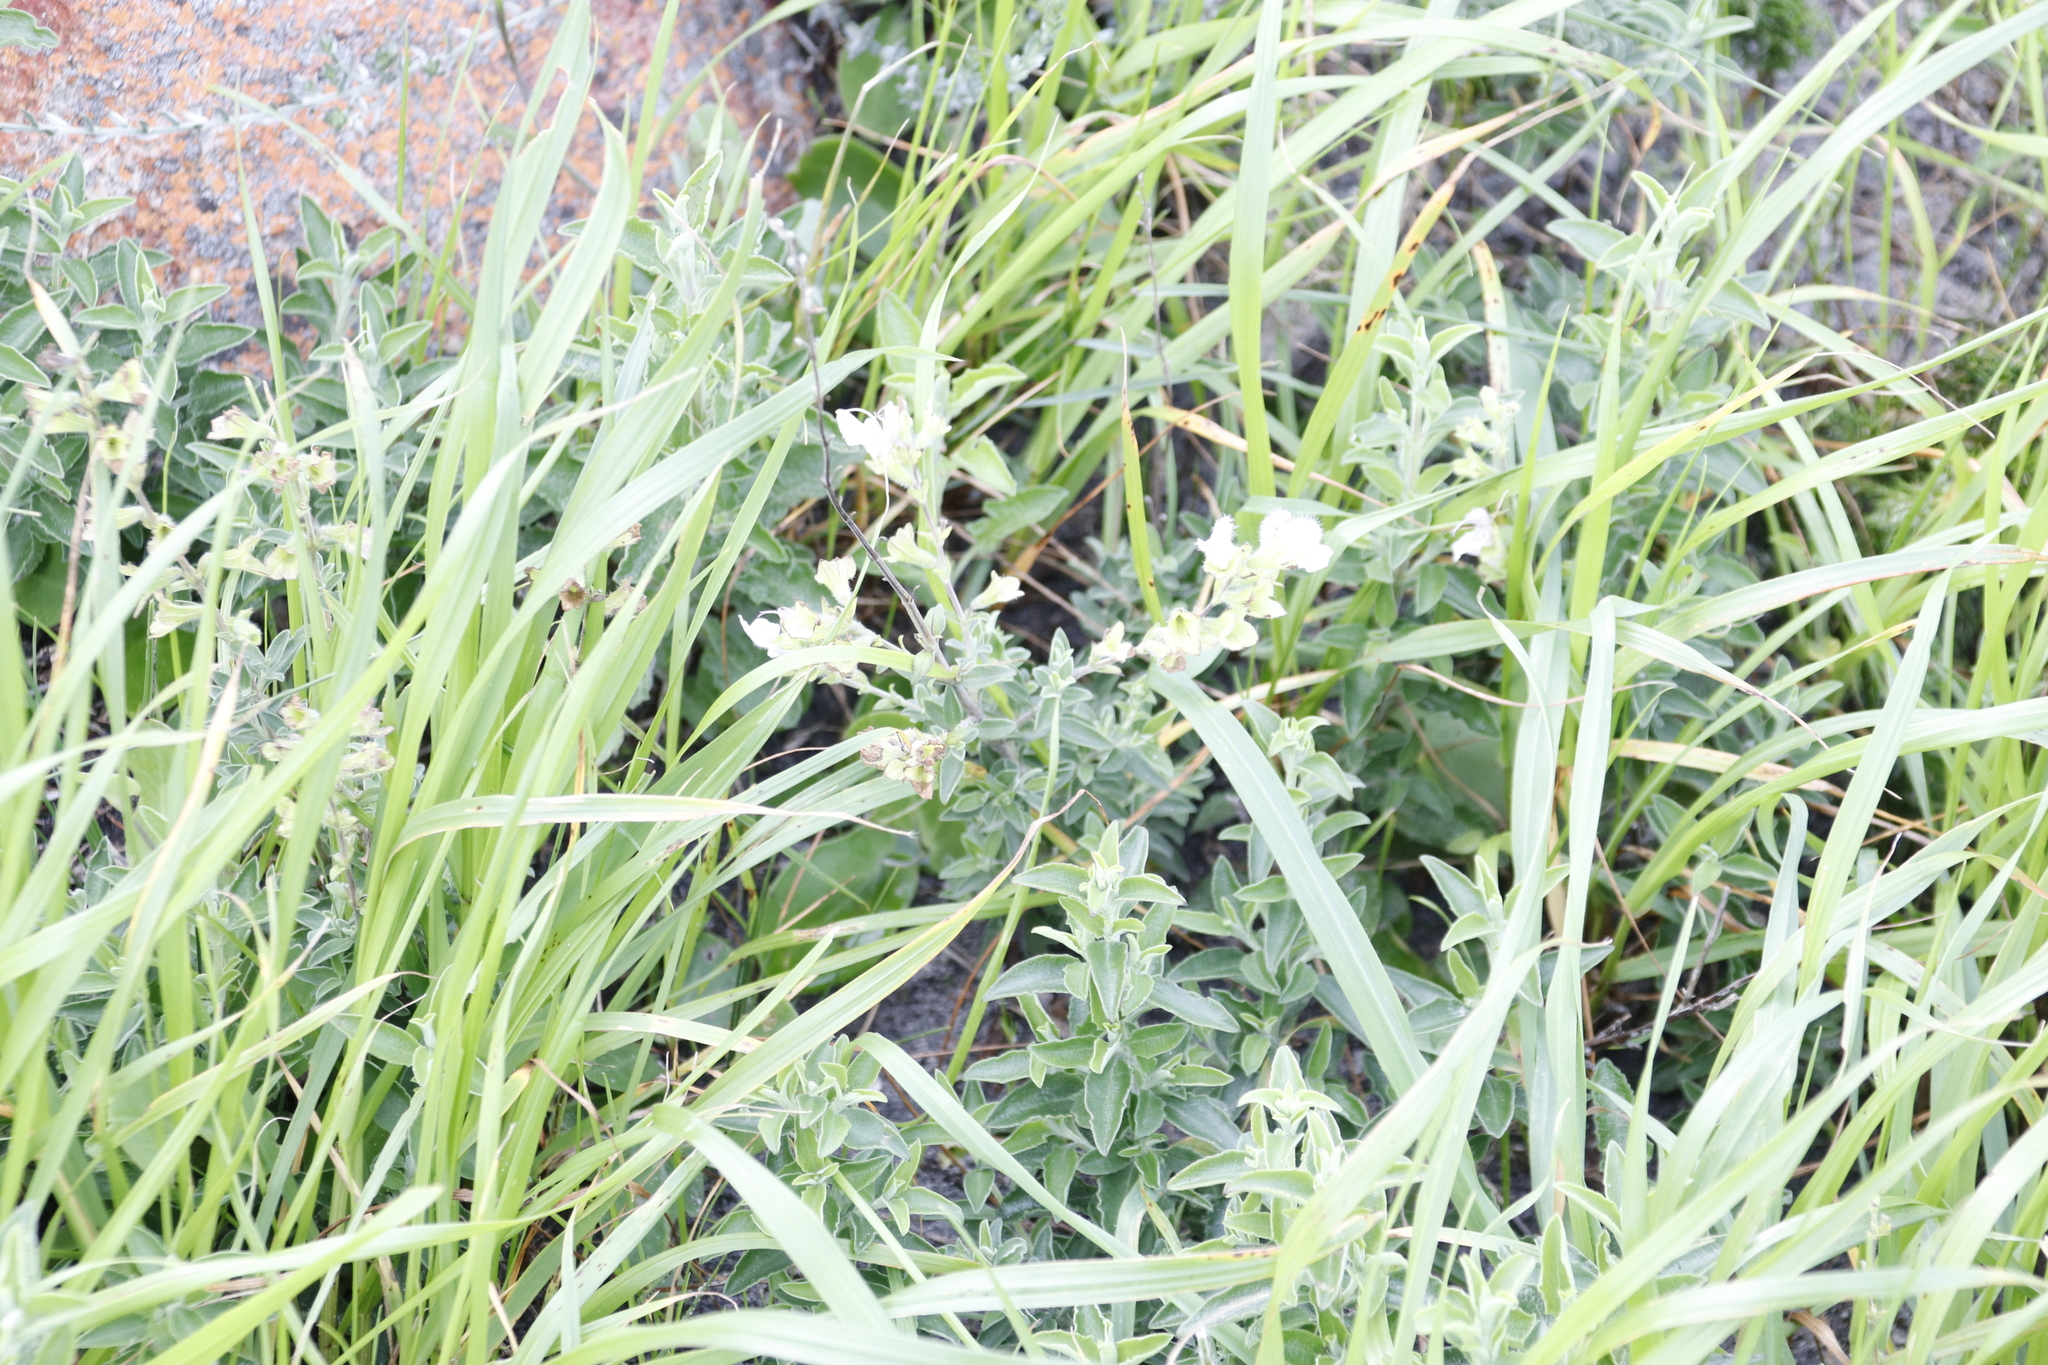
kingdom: Plantae
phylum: Tracheophyta
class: Magnoliopsida
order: Lamiales
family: Lamiaceae
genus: Salvia
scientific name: Salvia africana
